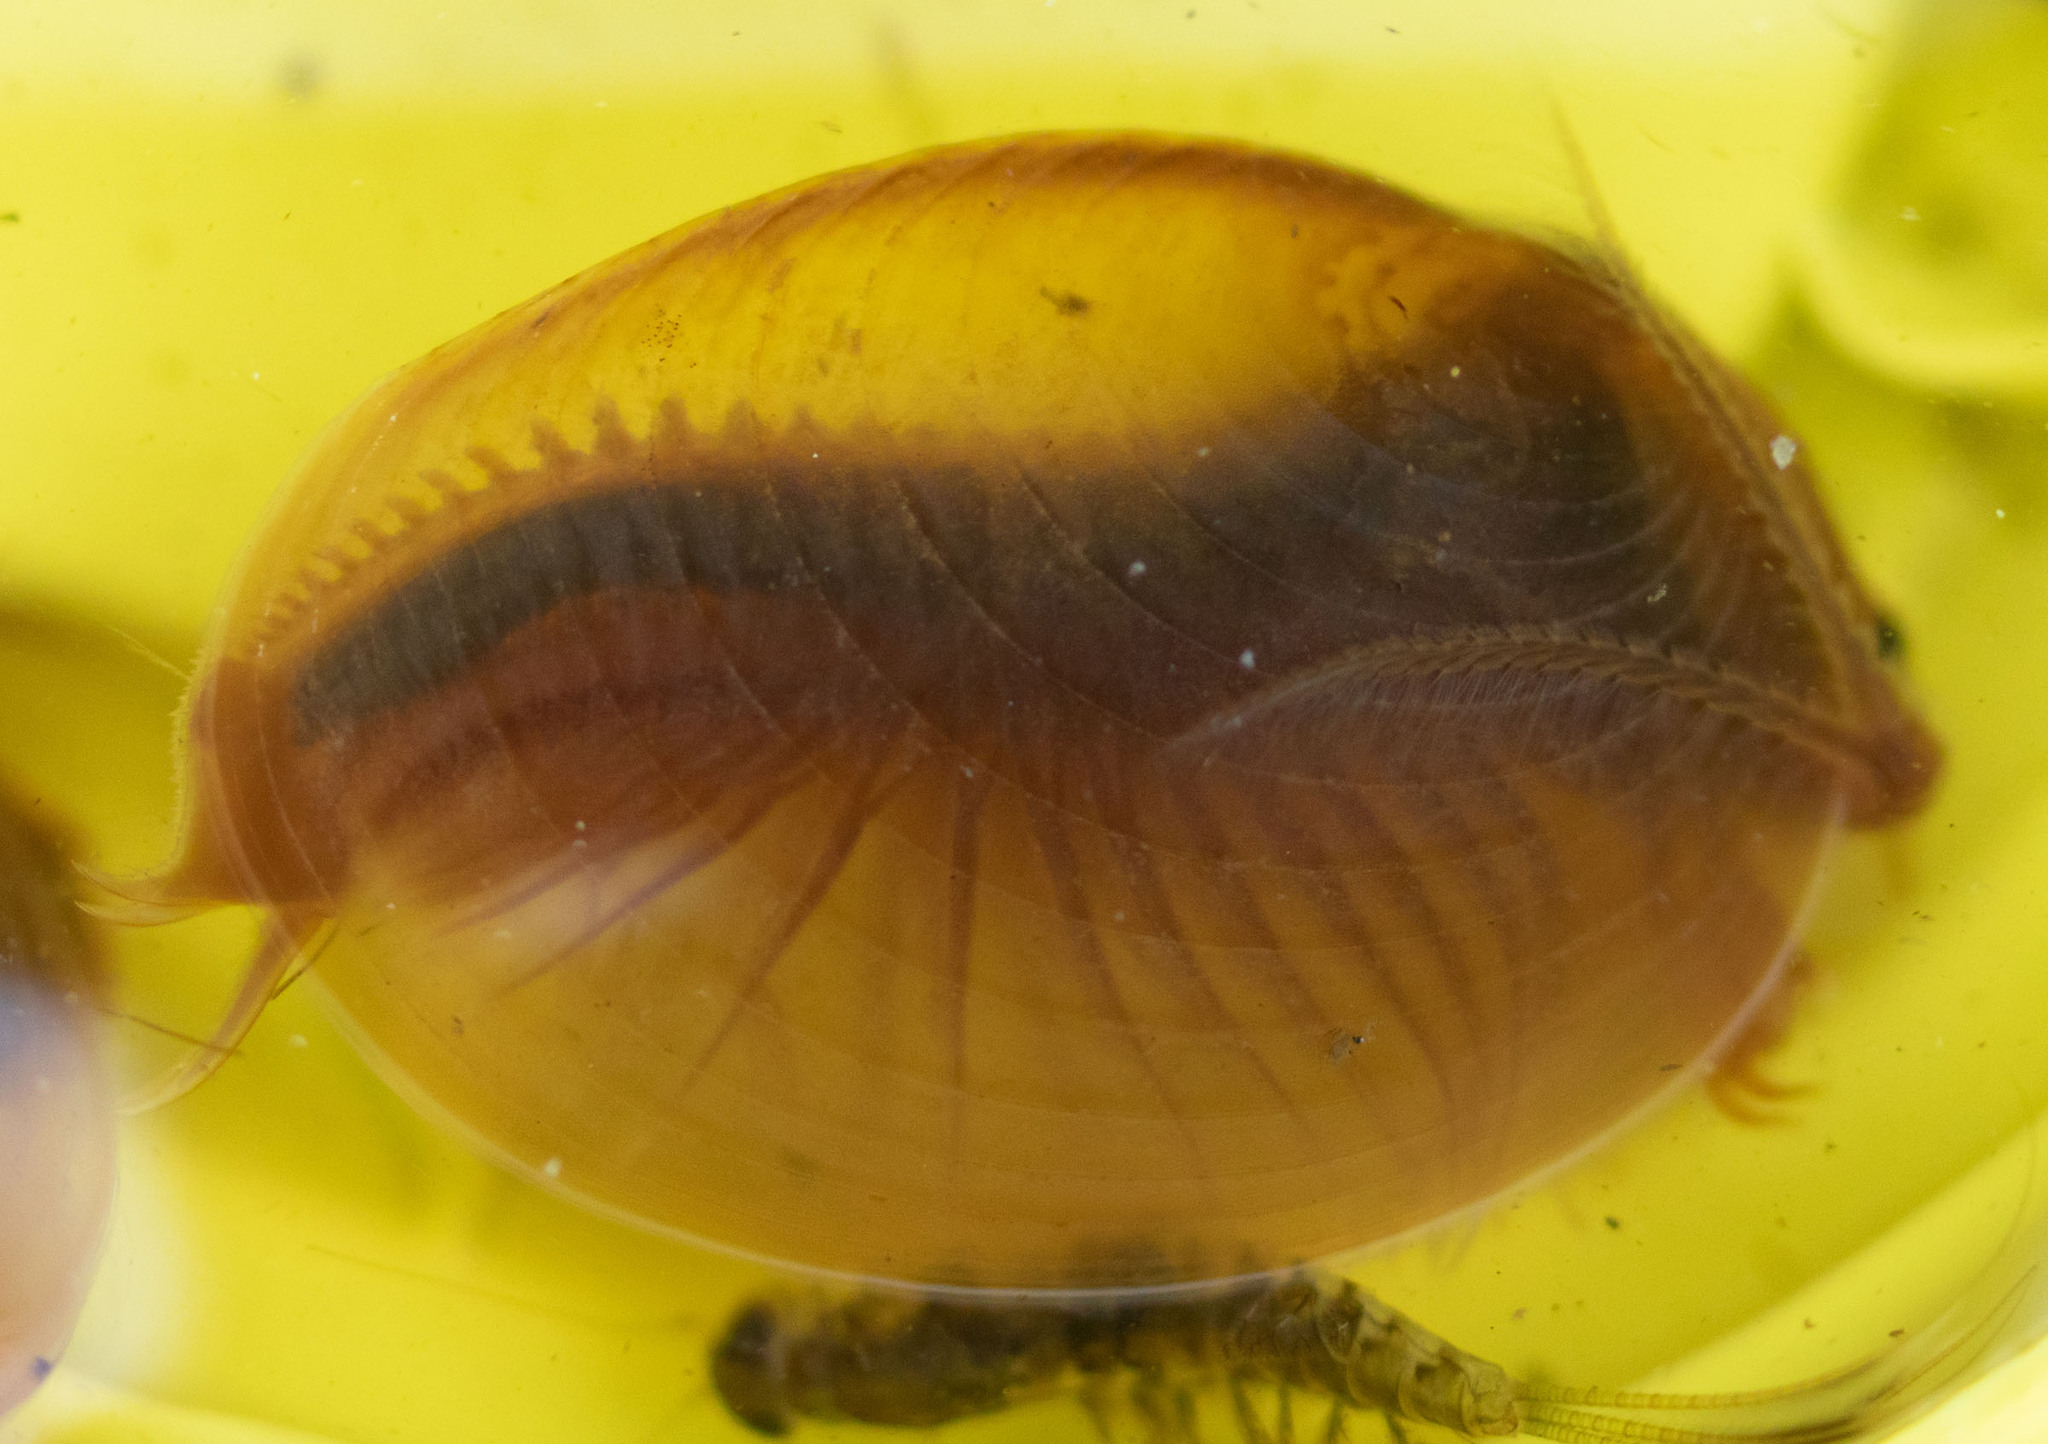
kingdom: Animalia
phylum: Arthropoda
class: Branchiopoda
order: Diplostraca
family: Cyzicidae
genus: Cyzicus
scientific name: Cyzicus californicus
